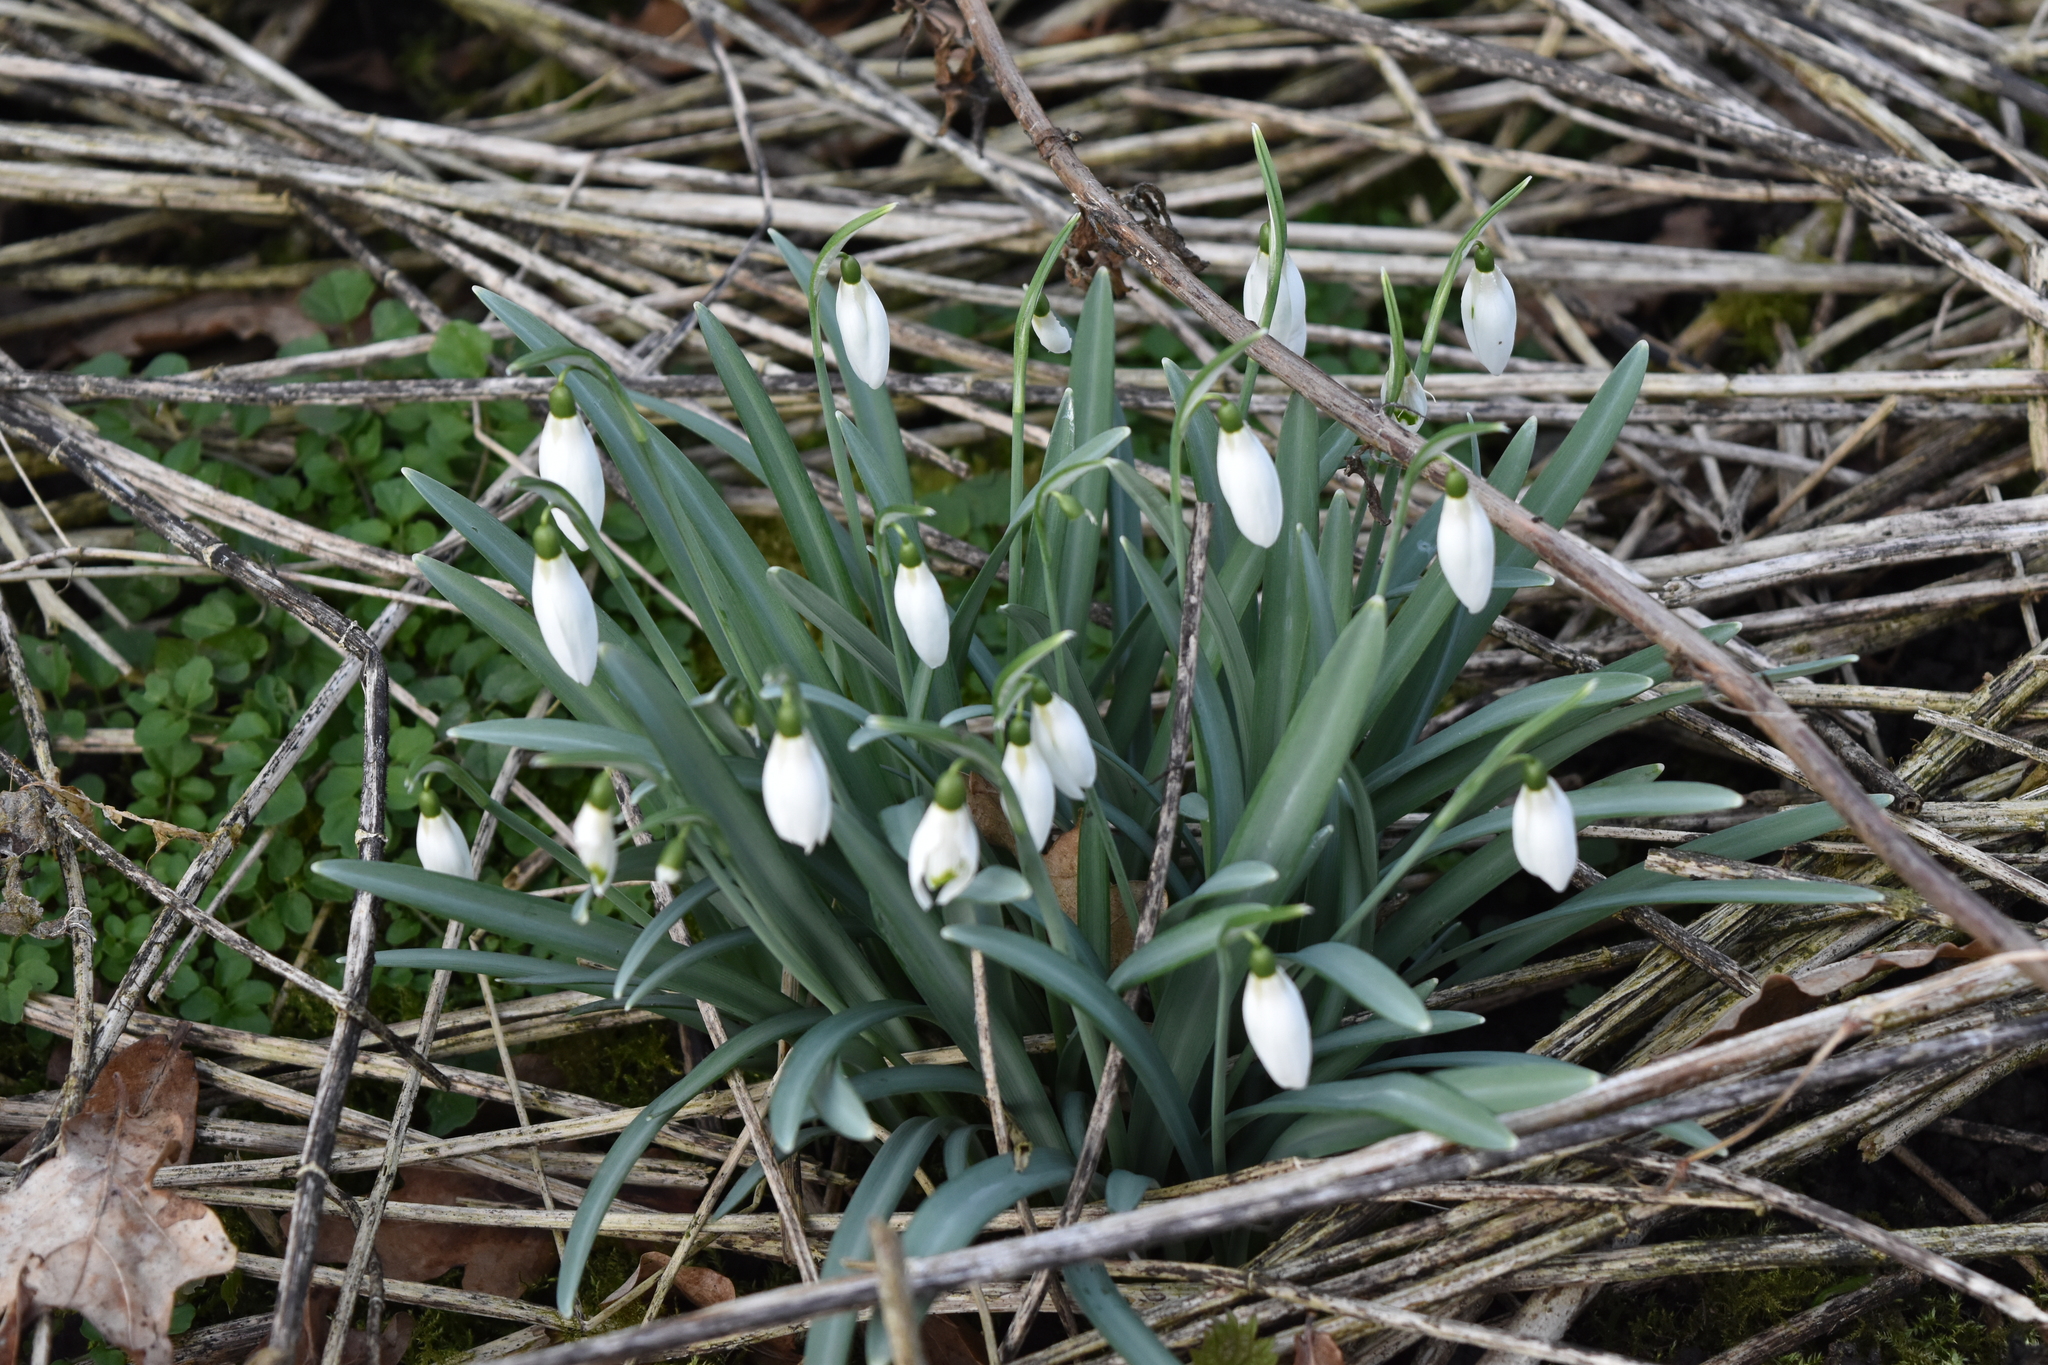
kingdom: Plantae
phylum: Tracheophyta
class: Liliopsida
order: Asparagales
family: Amaryllidaceae
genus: Galanthus
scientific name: Galanthus nivalis
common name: Snowdrop
